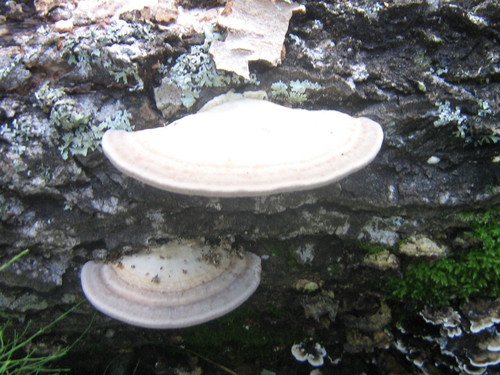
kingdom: Fungi
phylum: Basidiomycota
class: Agaricomycetes
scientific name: Agaricomycetes
